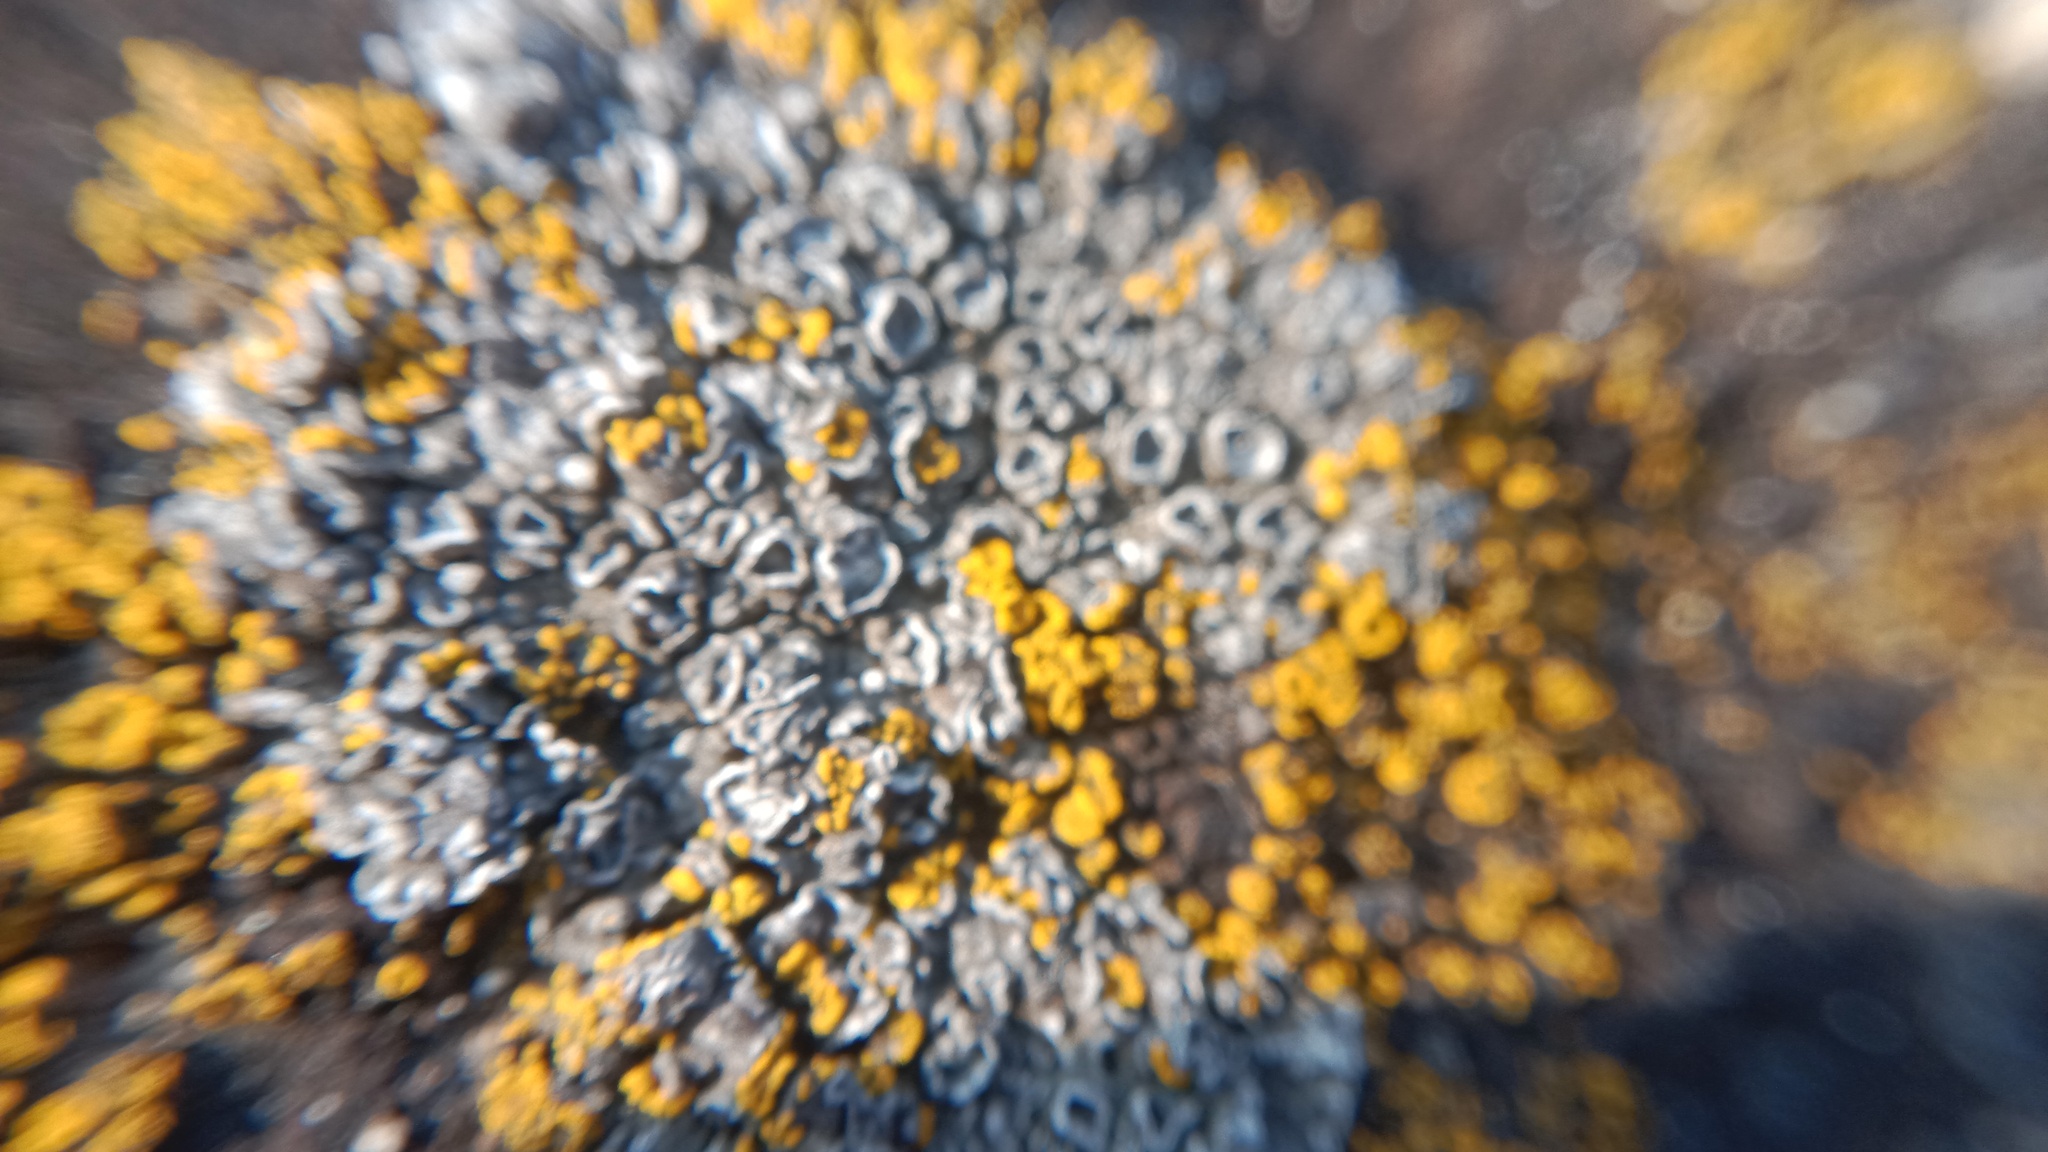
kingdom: Fungi
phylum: Ascomycota
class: Lecanoromycetes
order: Pertusariales
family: Megasporaceae
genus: Circinaria
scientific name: Circinaria hoffmanniana
